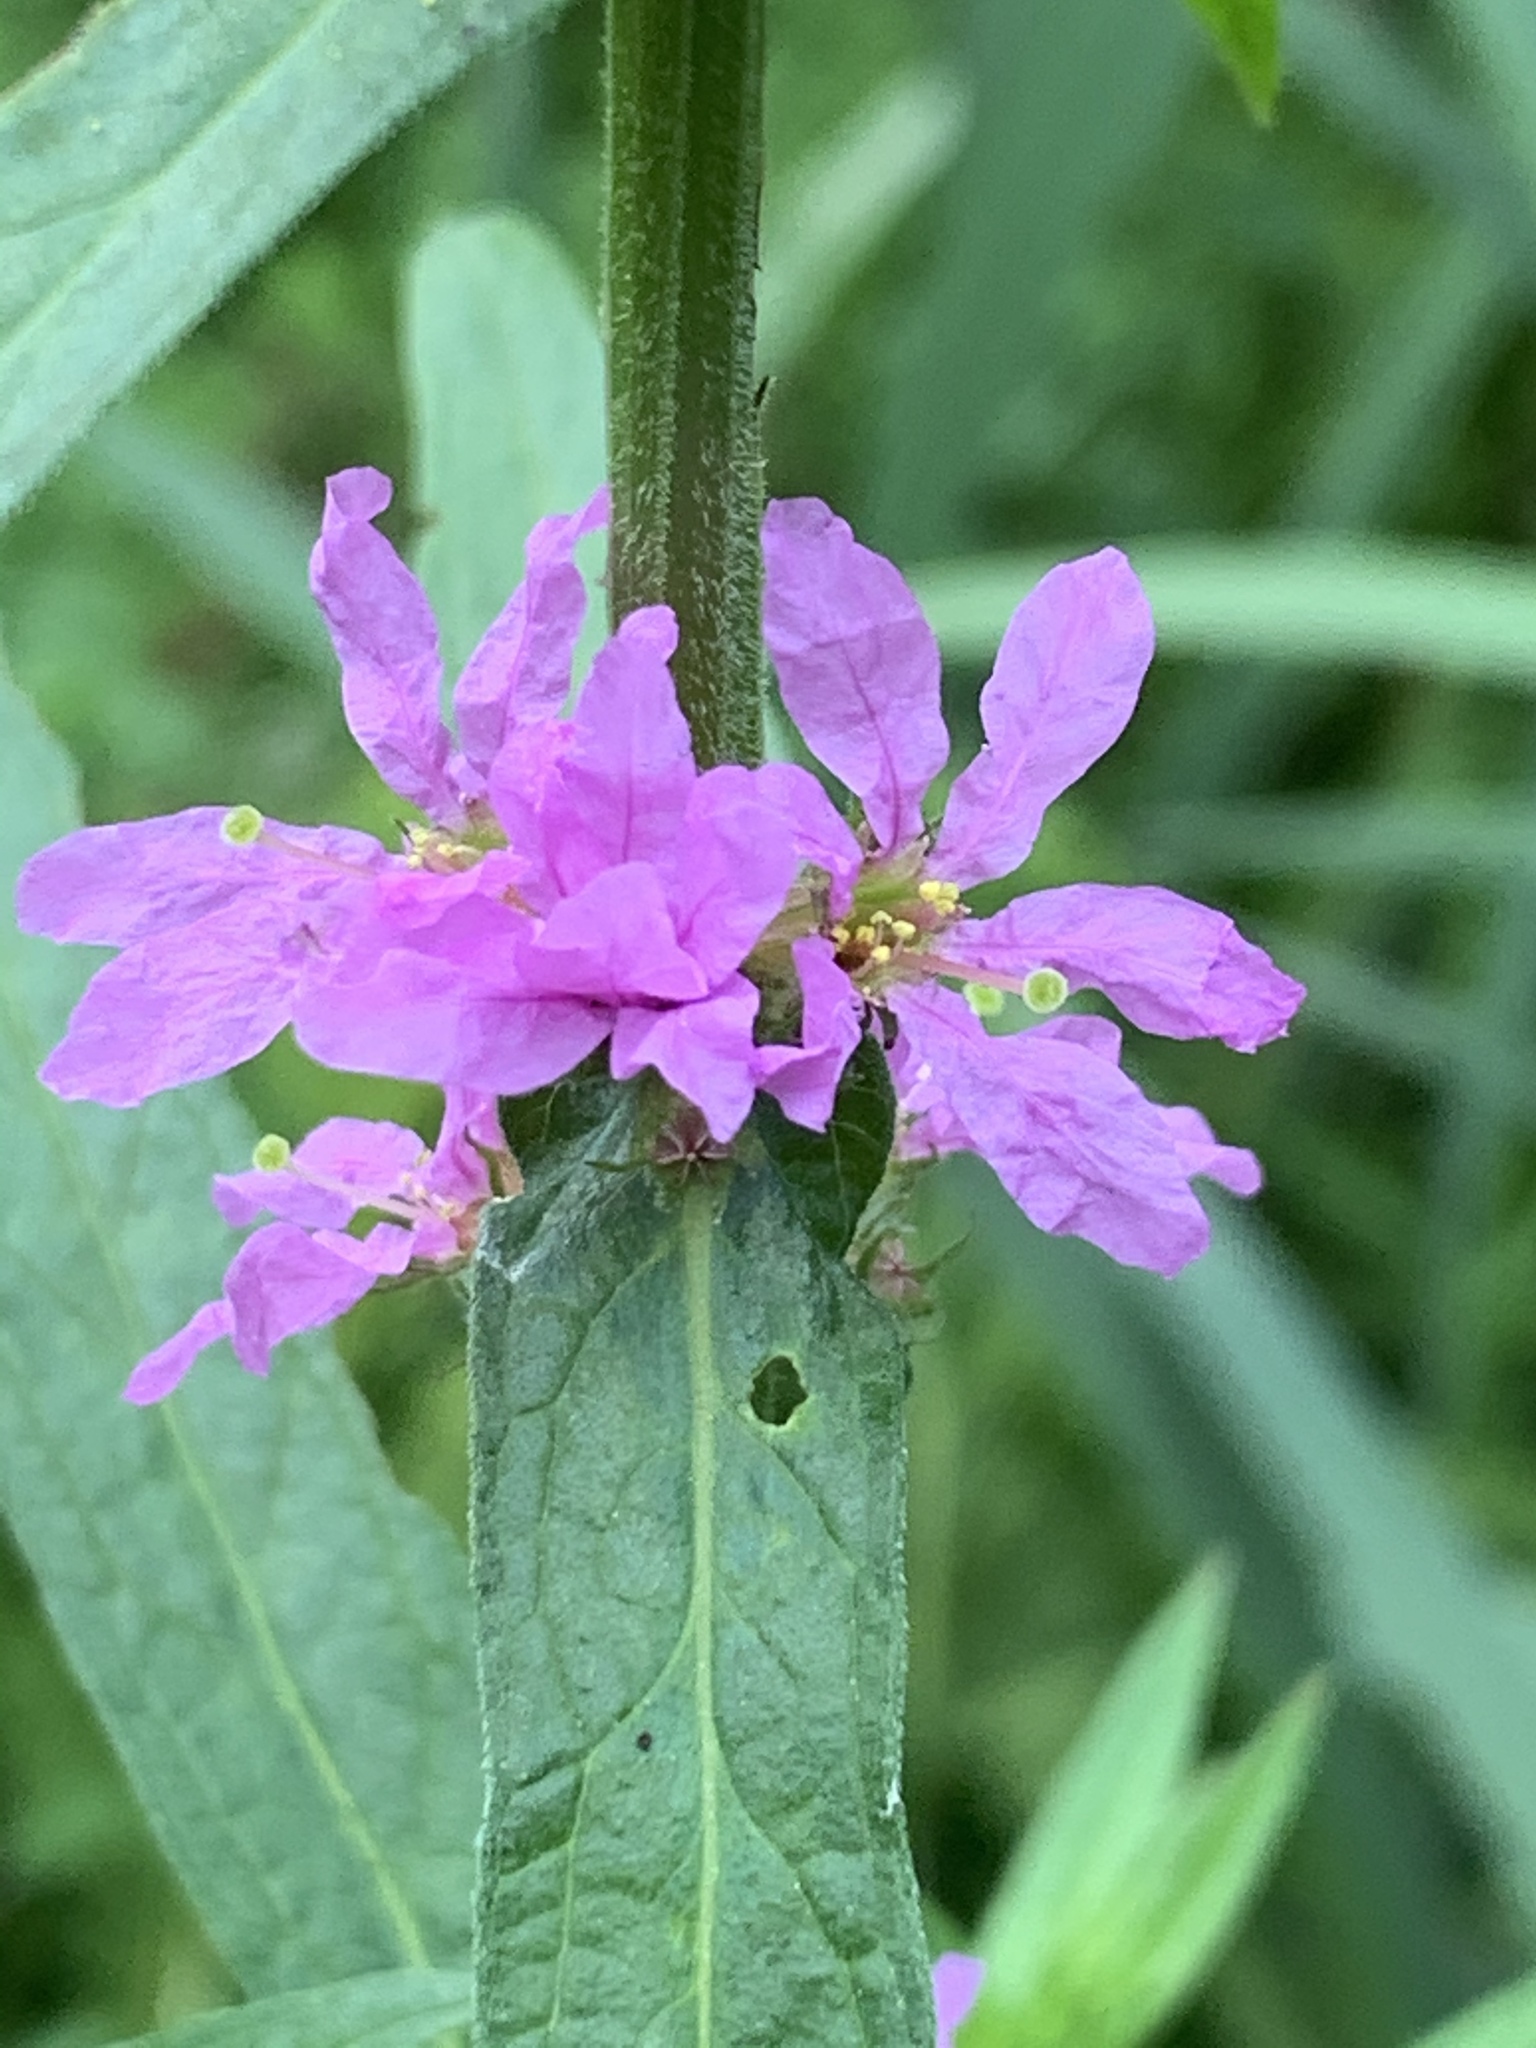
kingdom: Plantae
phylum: Tracheophyta
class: Magnoliopsida
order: Myrtales
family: Lythraceae
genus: Lythrum
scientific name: Lythrum salicaria
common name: Purple loosestrife
